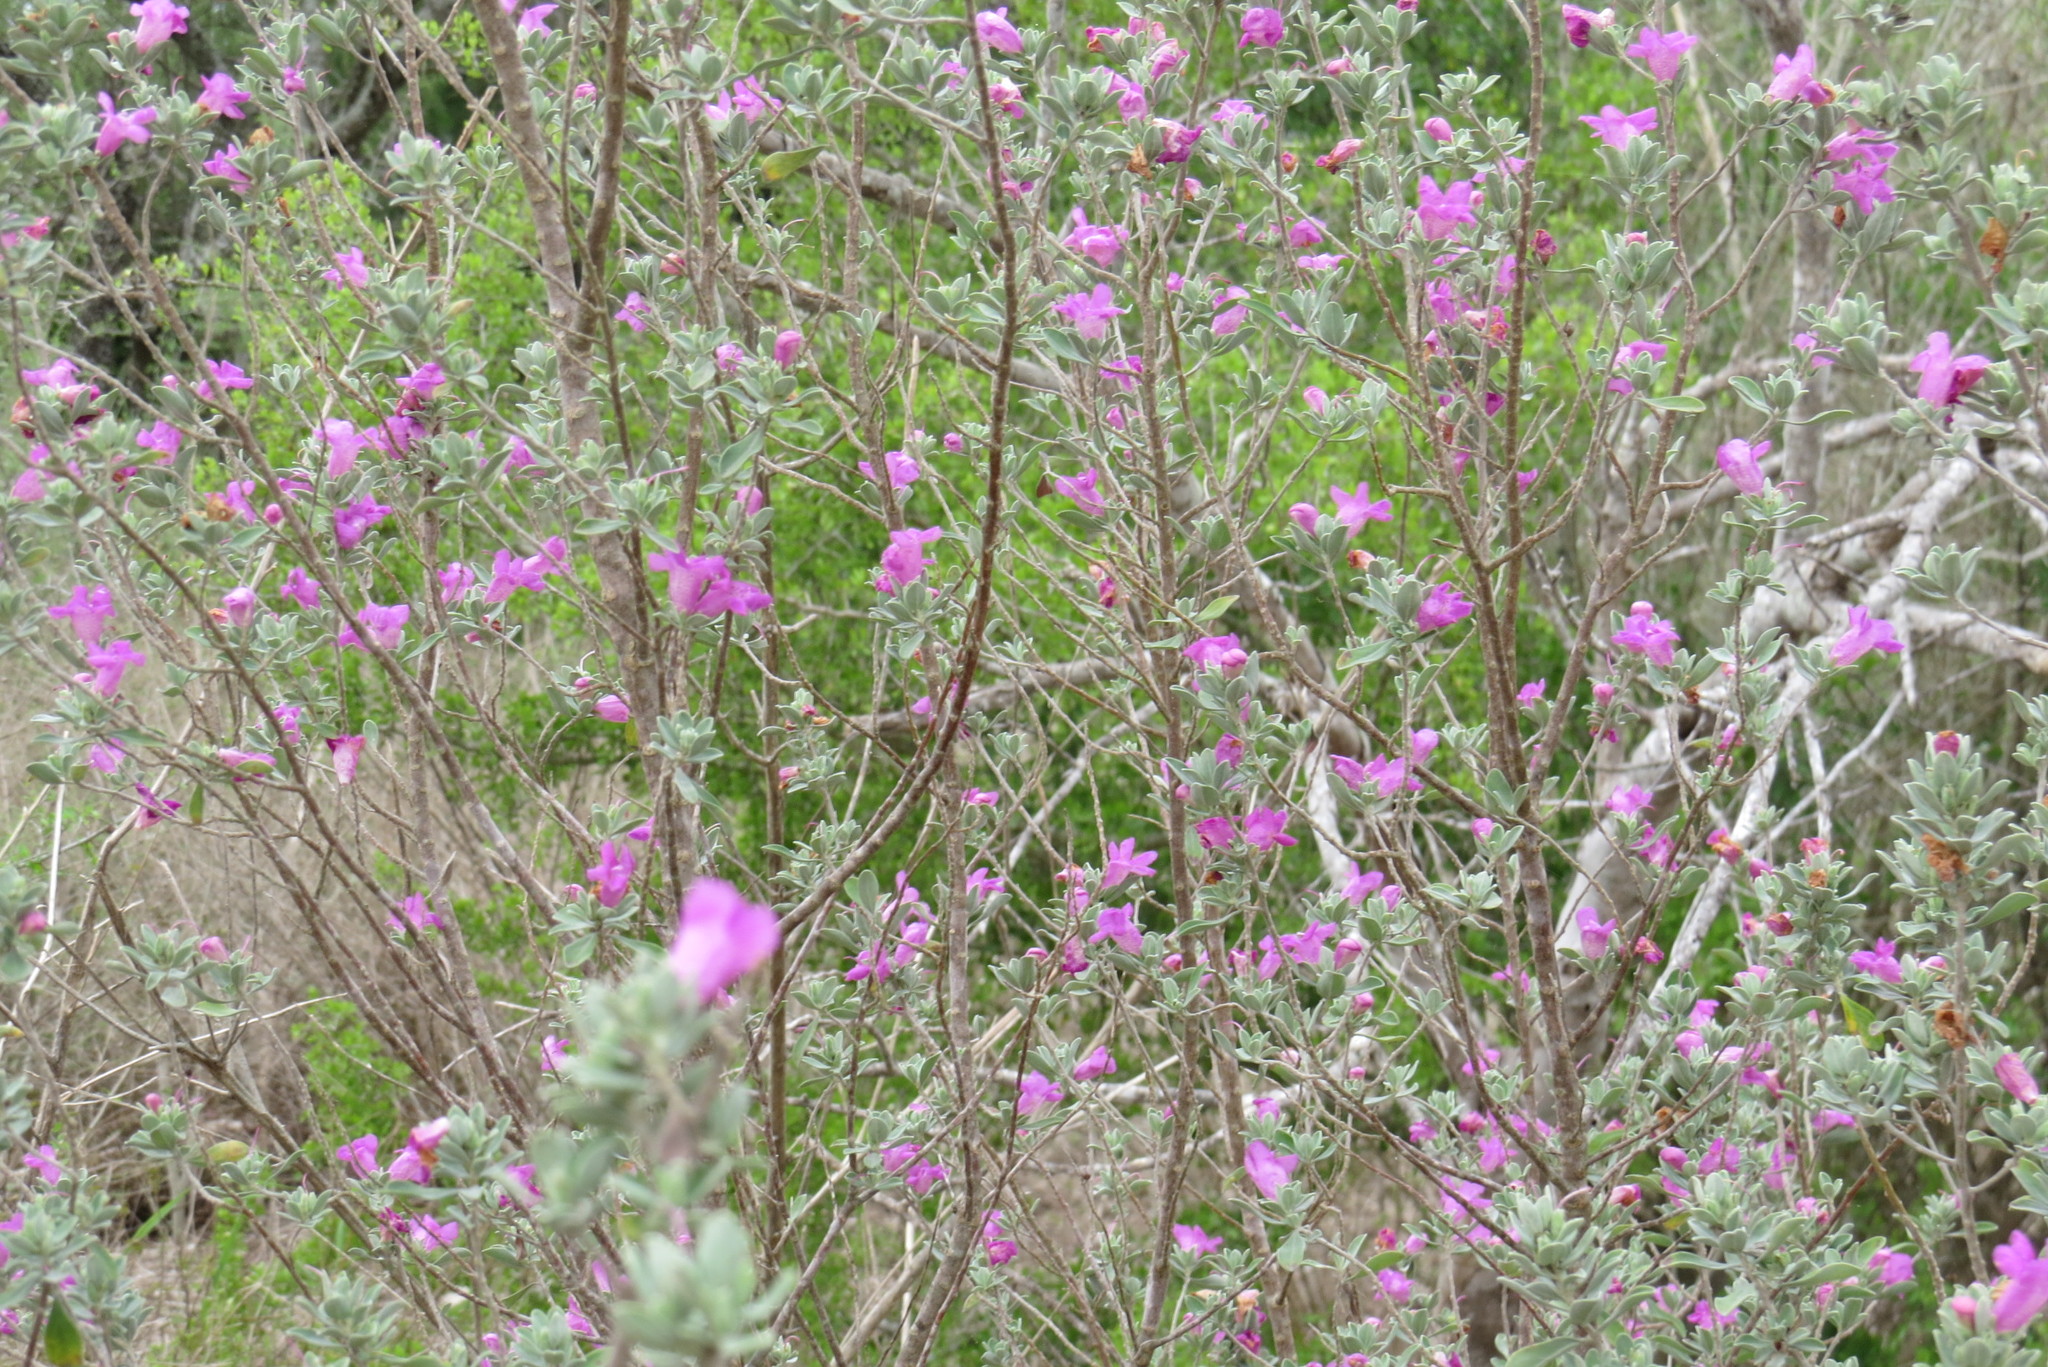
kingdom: Plantae
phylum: Tracheophyta
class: Magnoliopsida
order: Lamiales
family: Scrophulariaceae
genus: Leucophyllum
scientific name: Leucophyllum frutescens
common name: Texas silverleaf
